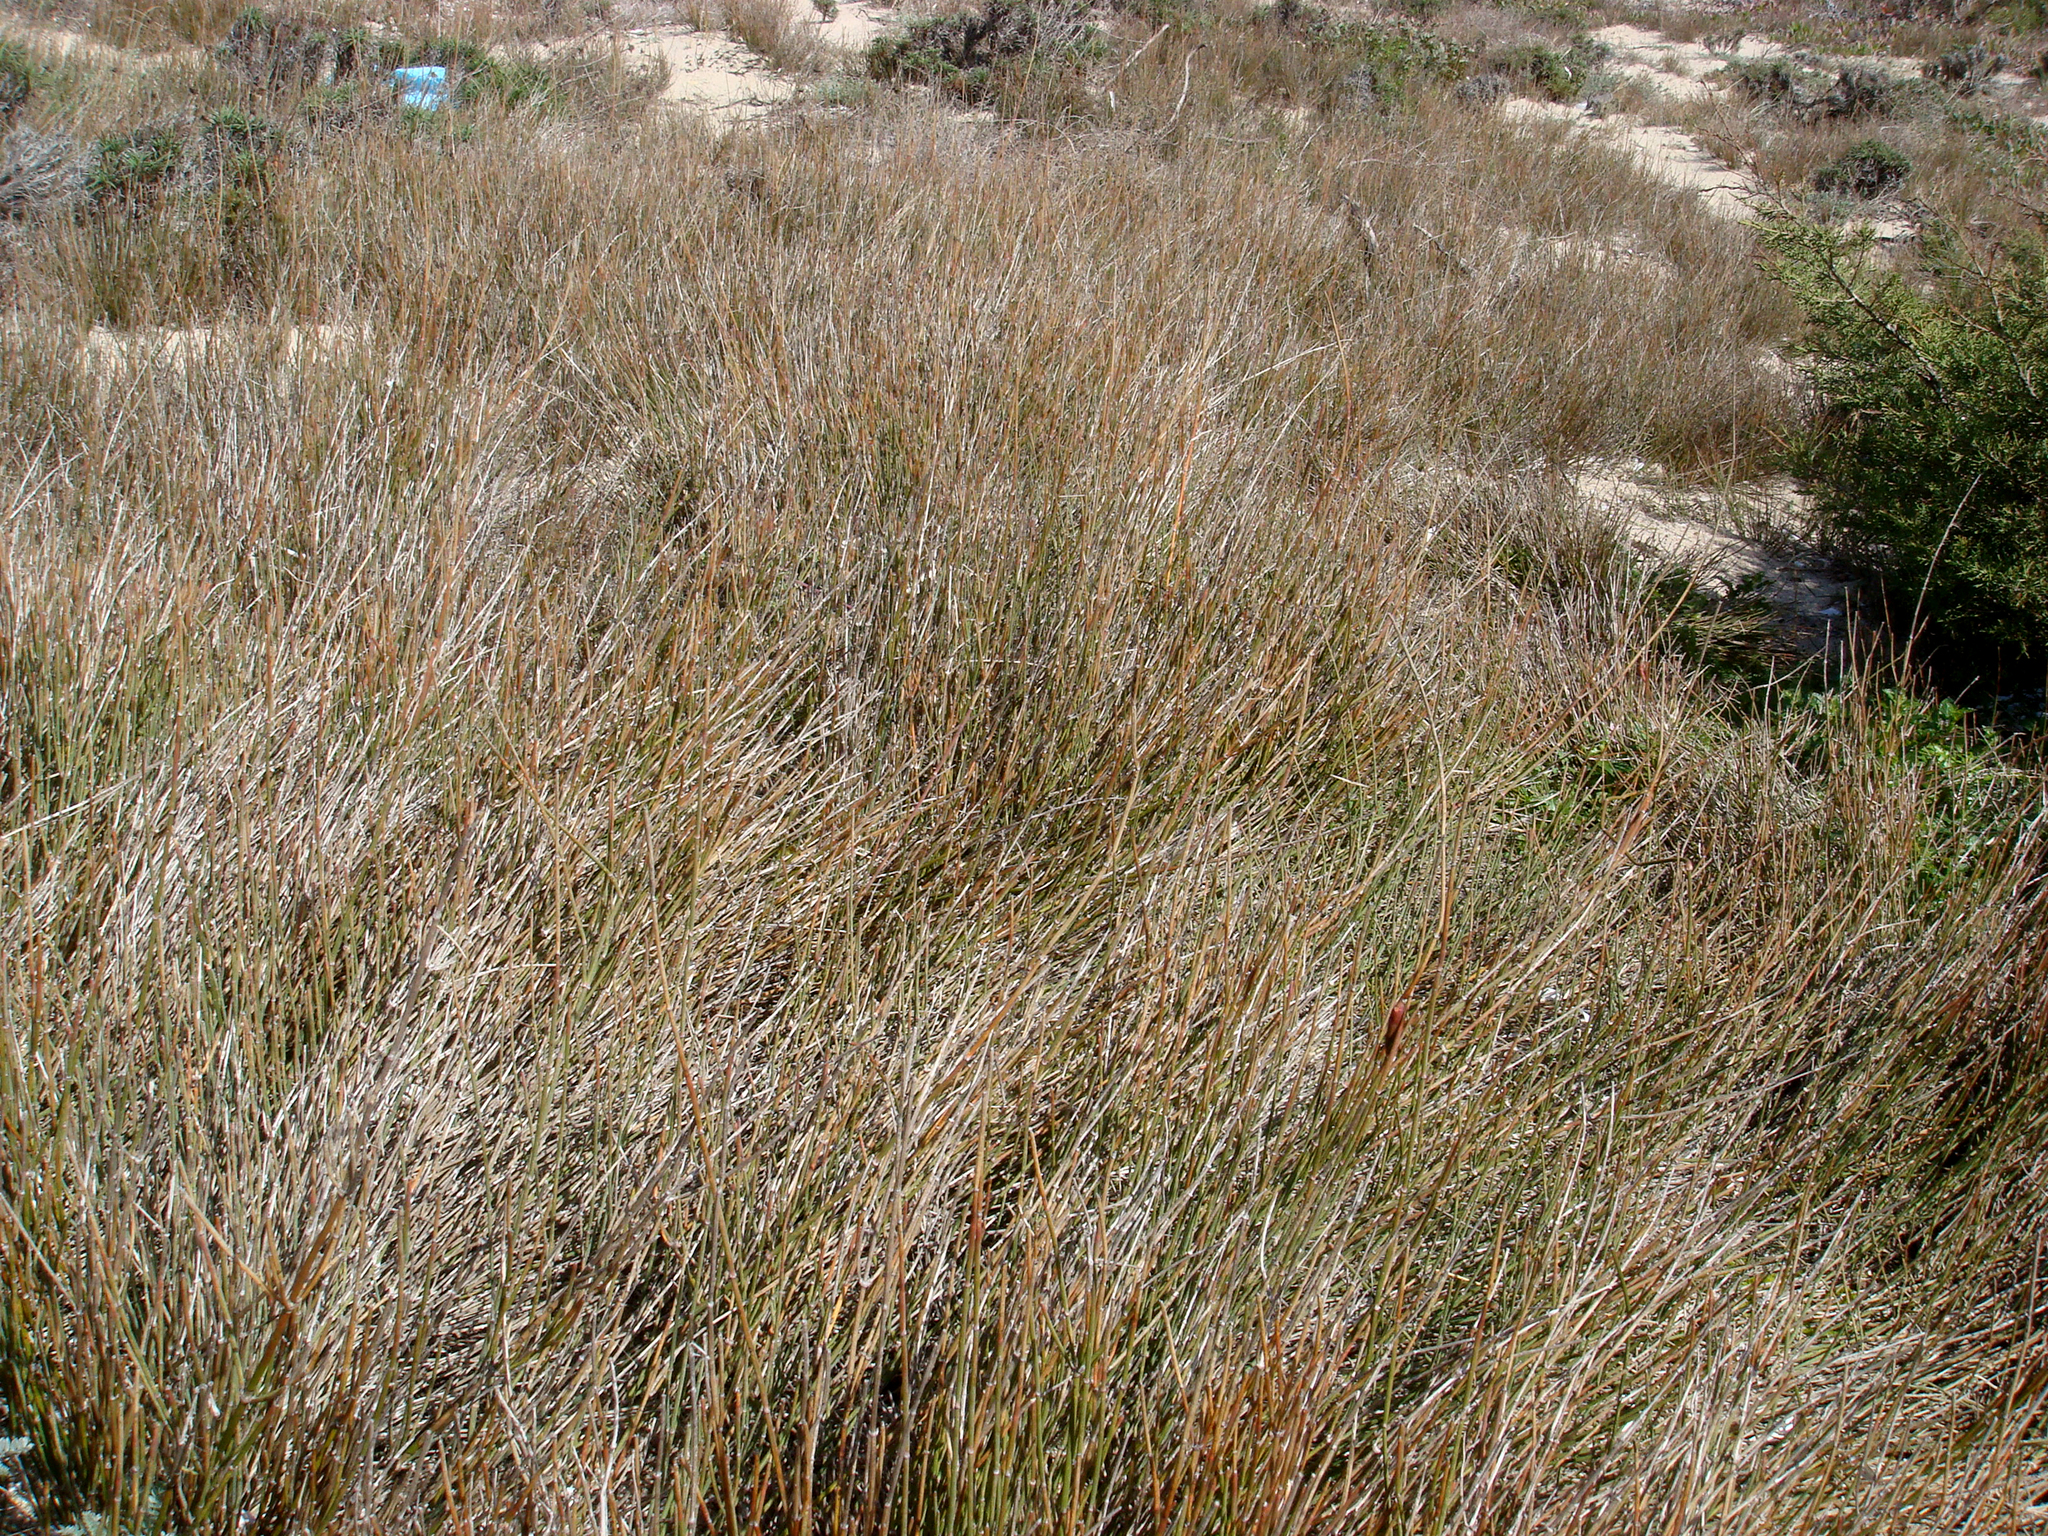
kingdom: Plantae
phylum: Tracheophyta
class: Gnetopsida
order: Ephedrales
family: Ephedraceae
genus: Ephedra
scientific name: Ephedra distachya
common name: Sea grape
